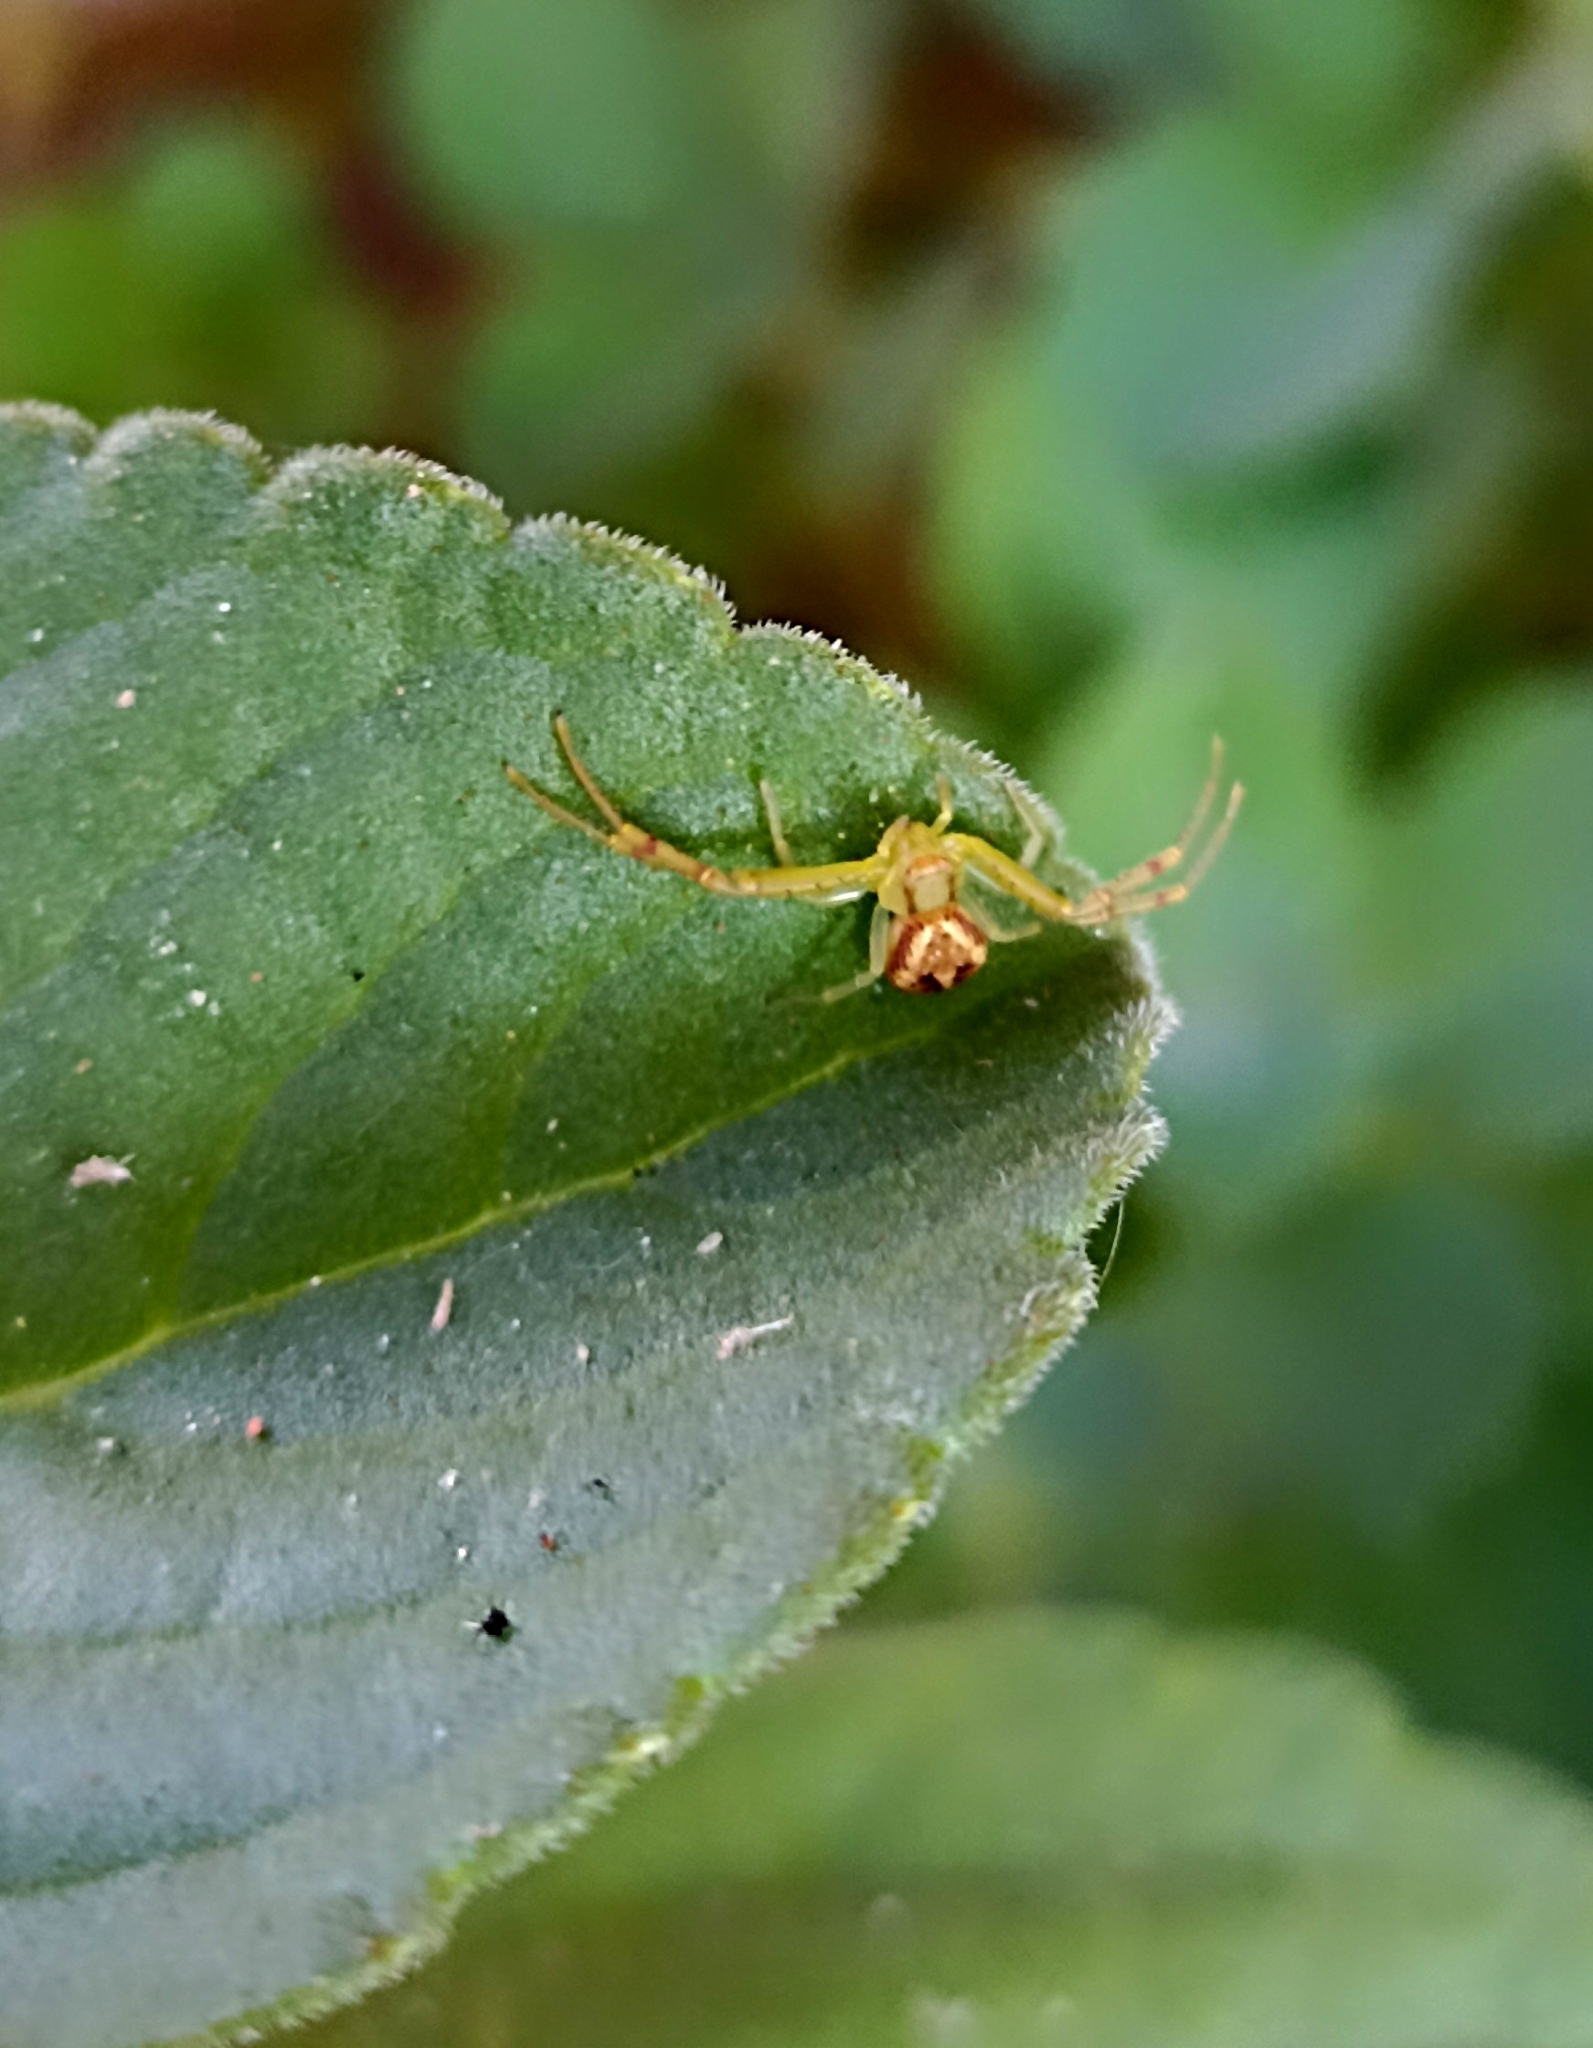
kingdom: Animalia
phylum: Arthropoda
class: Arachnida
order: Araneae
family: Thomisidae
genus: Misumenops
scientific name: Misumenops maculissparsus
